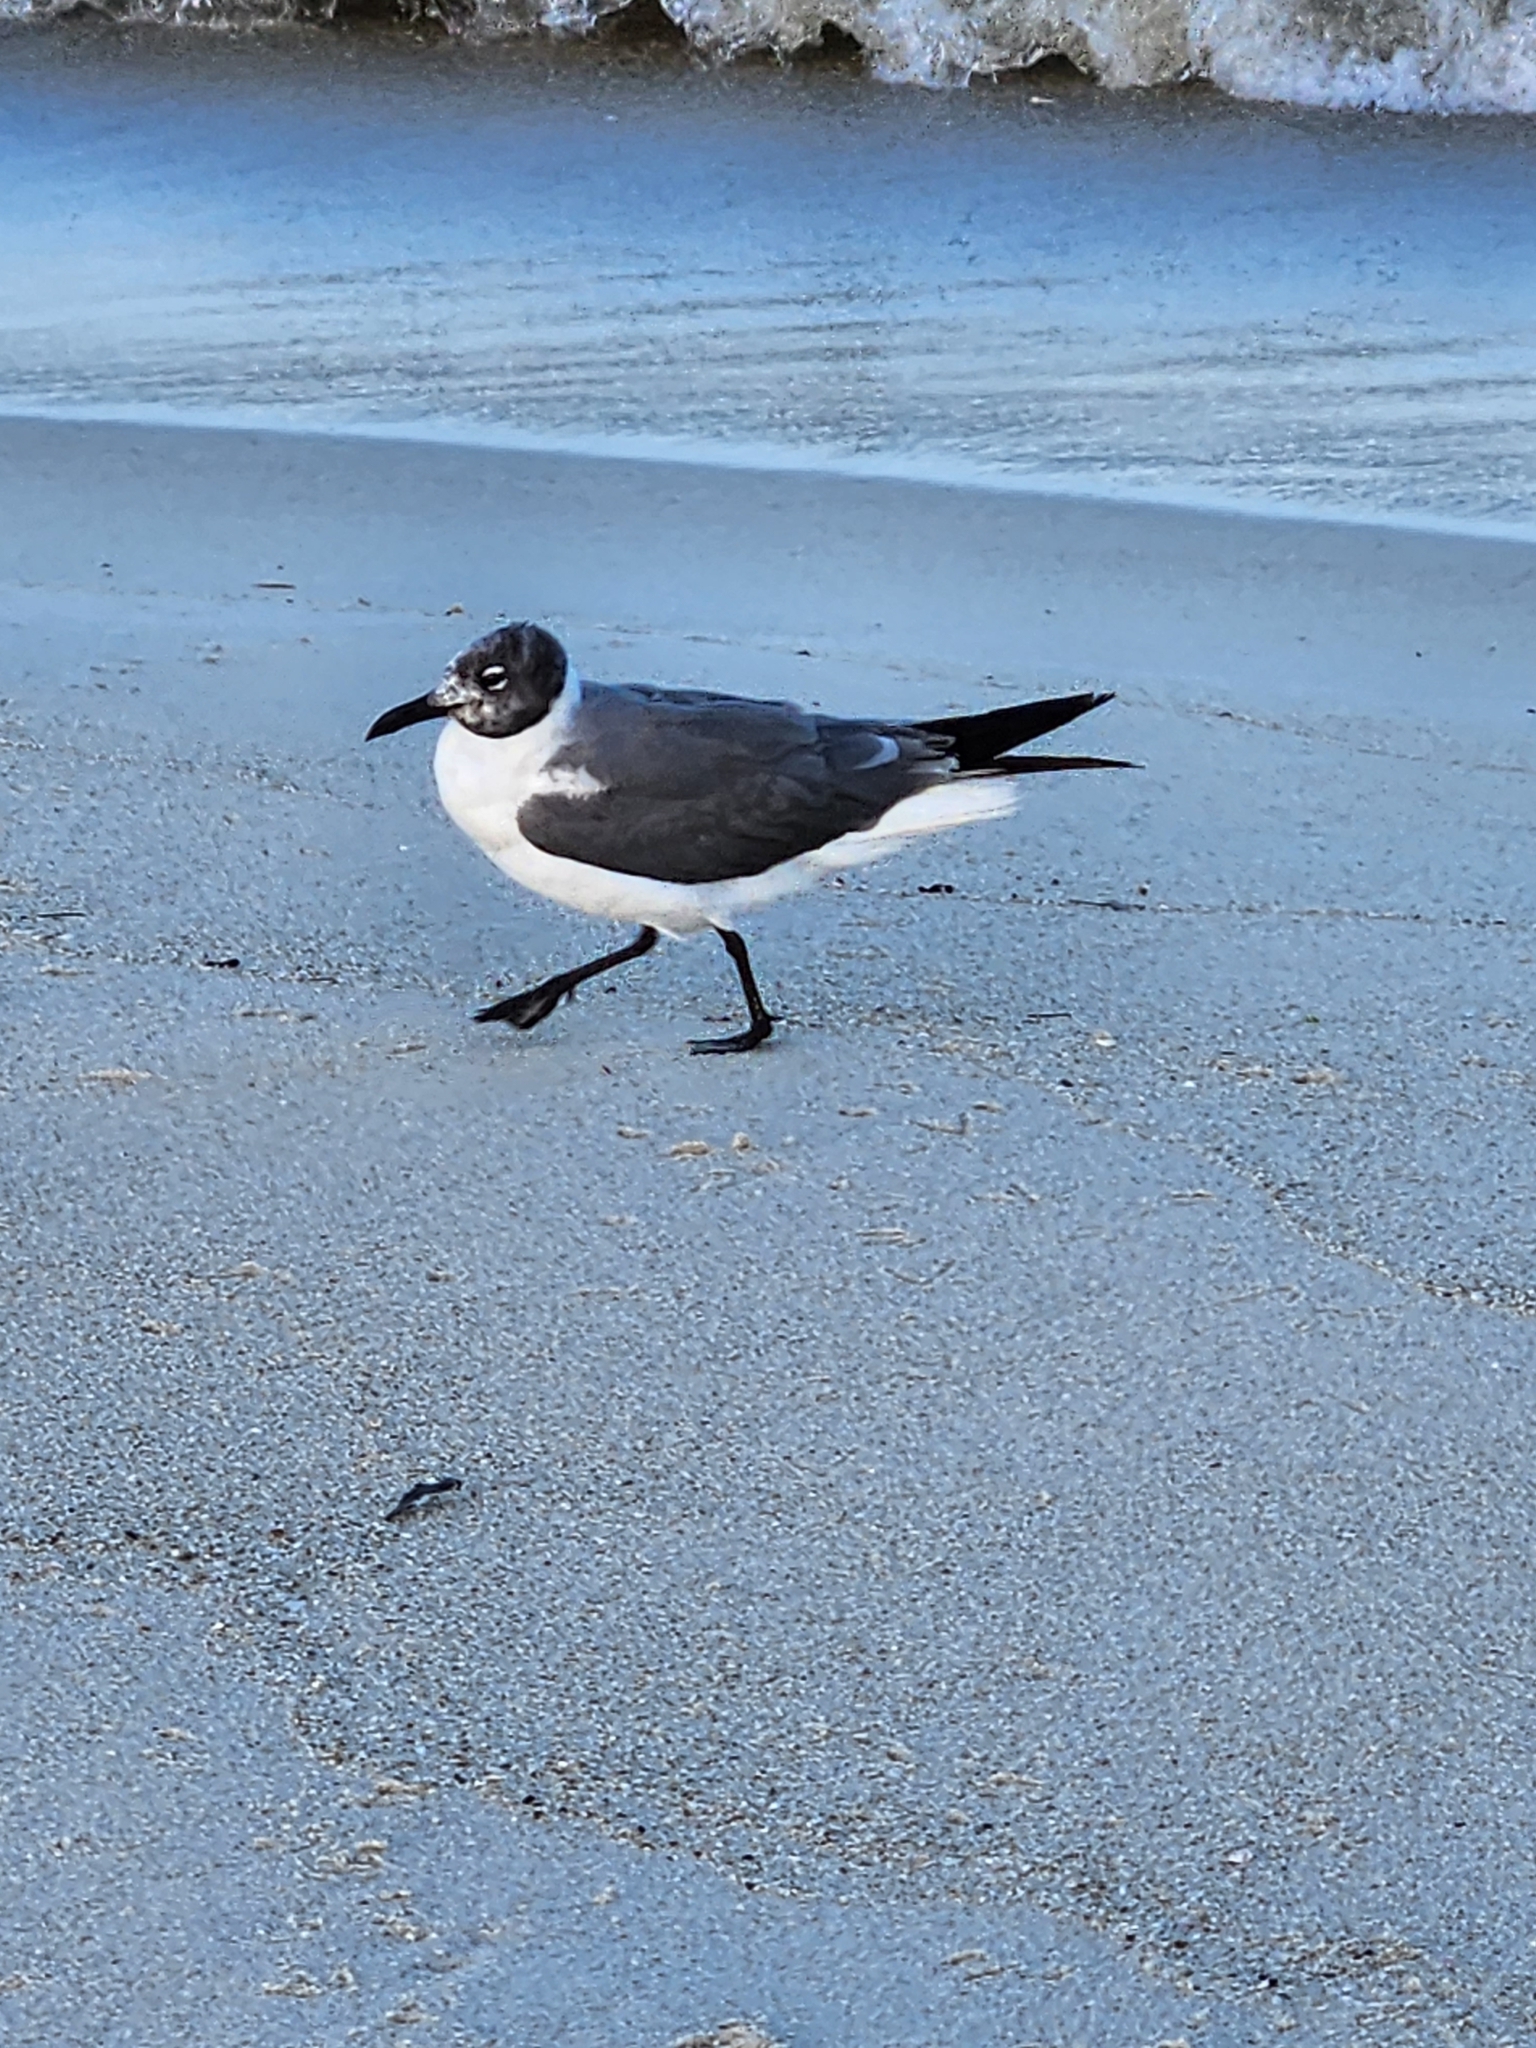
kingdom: Animalia
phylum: Chordata
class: Aves
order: Charadriiformes
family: Laridae
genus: Leucophaeus
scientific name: Leucophaeus atricilla
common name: Laughing gull
